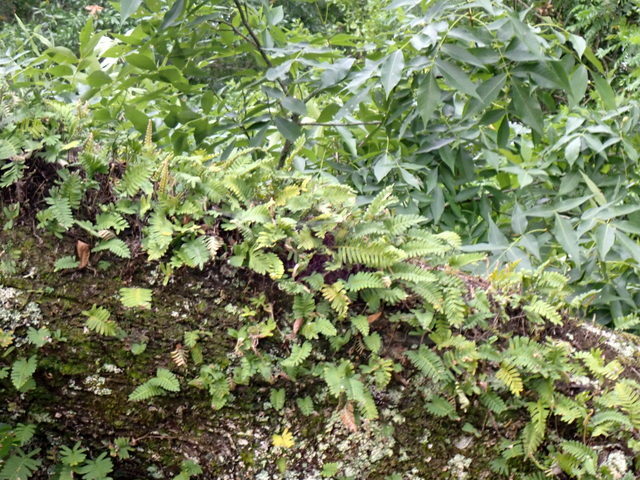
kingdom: Plantae
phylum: Tracheophyta
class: Polypodiopsida
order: Polypodiales
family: Polypodiaceae
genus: Pleopeltis
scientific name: Pleopeltis michauxiana
